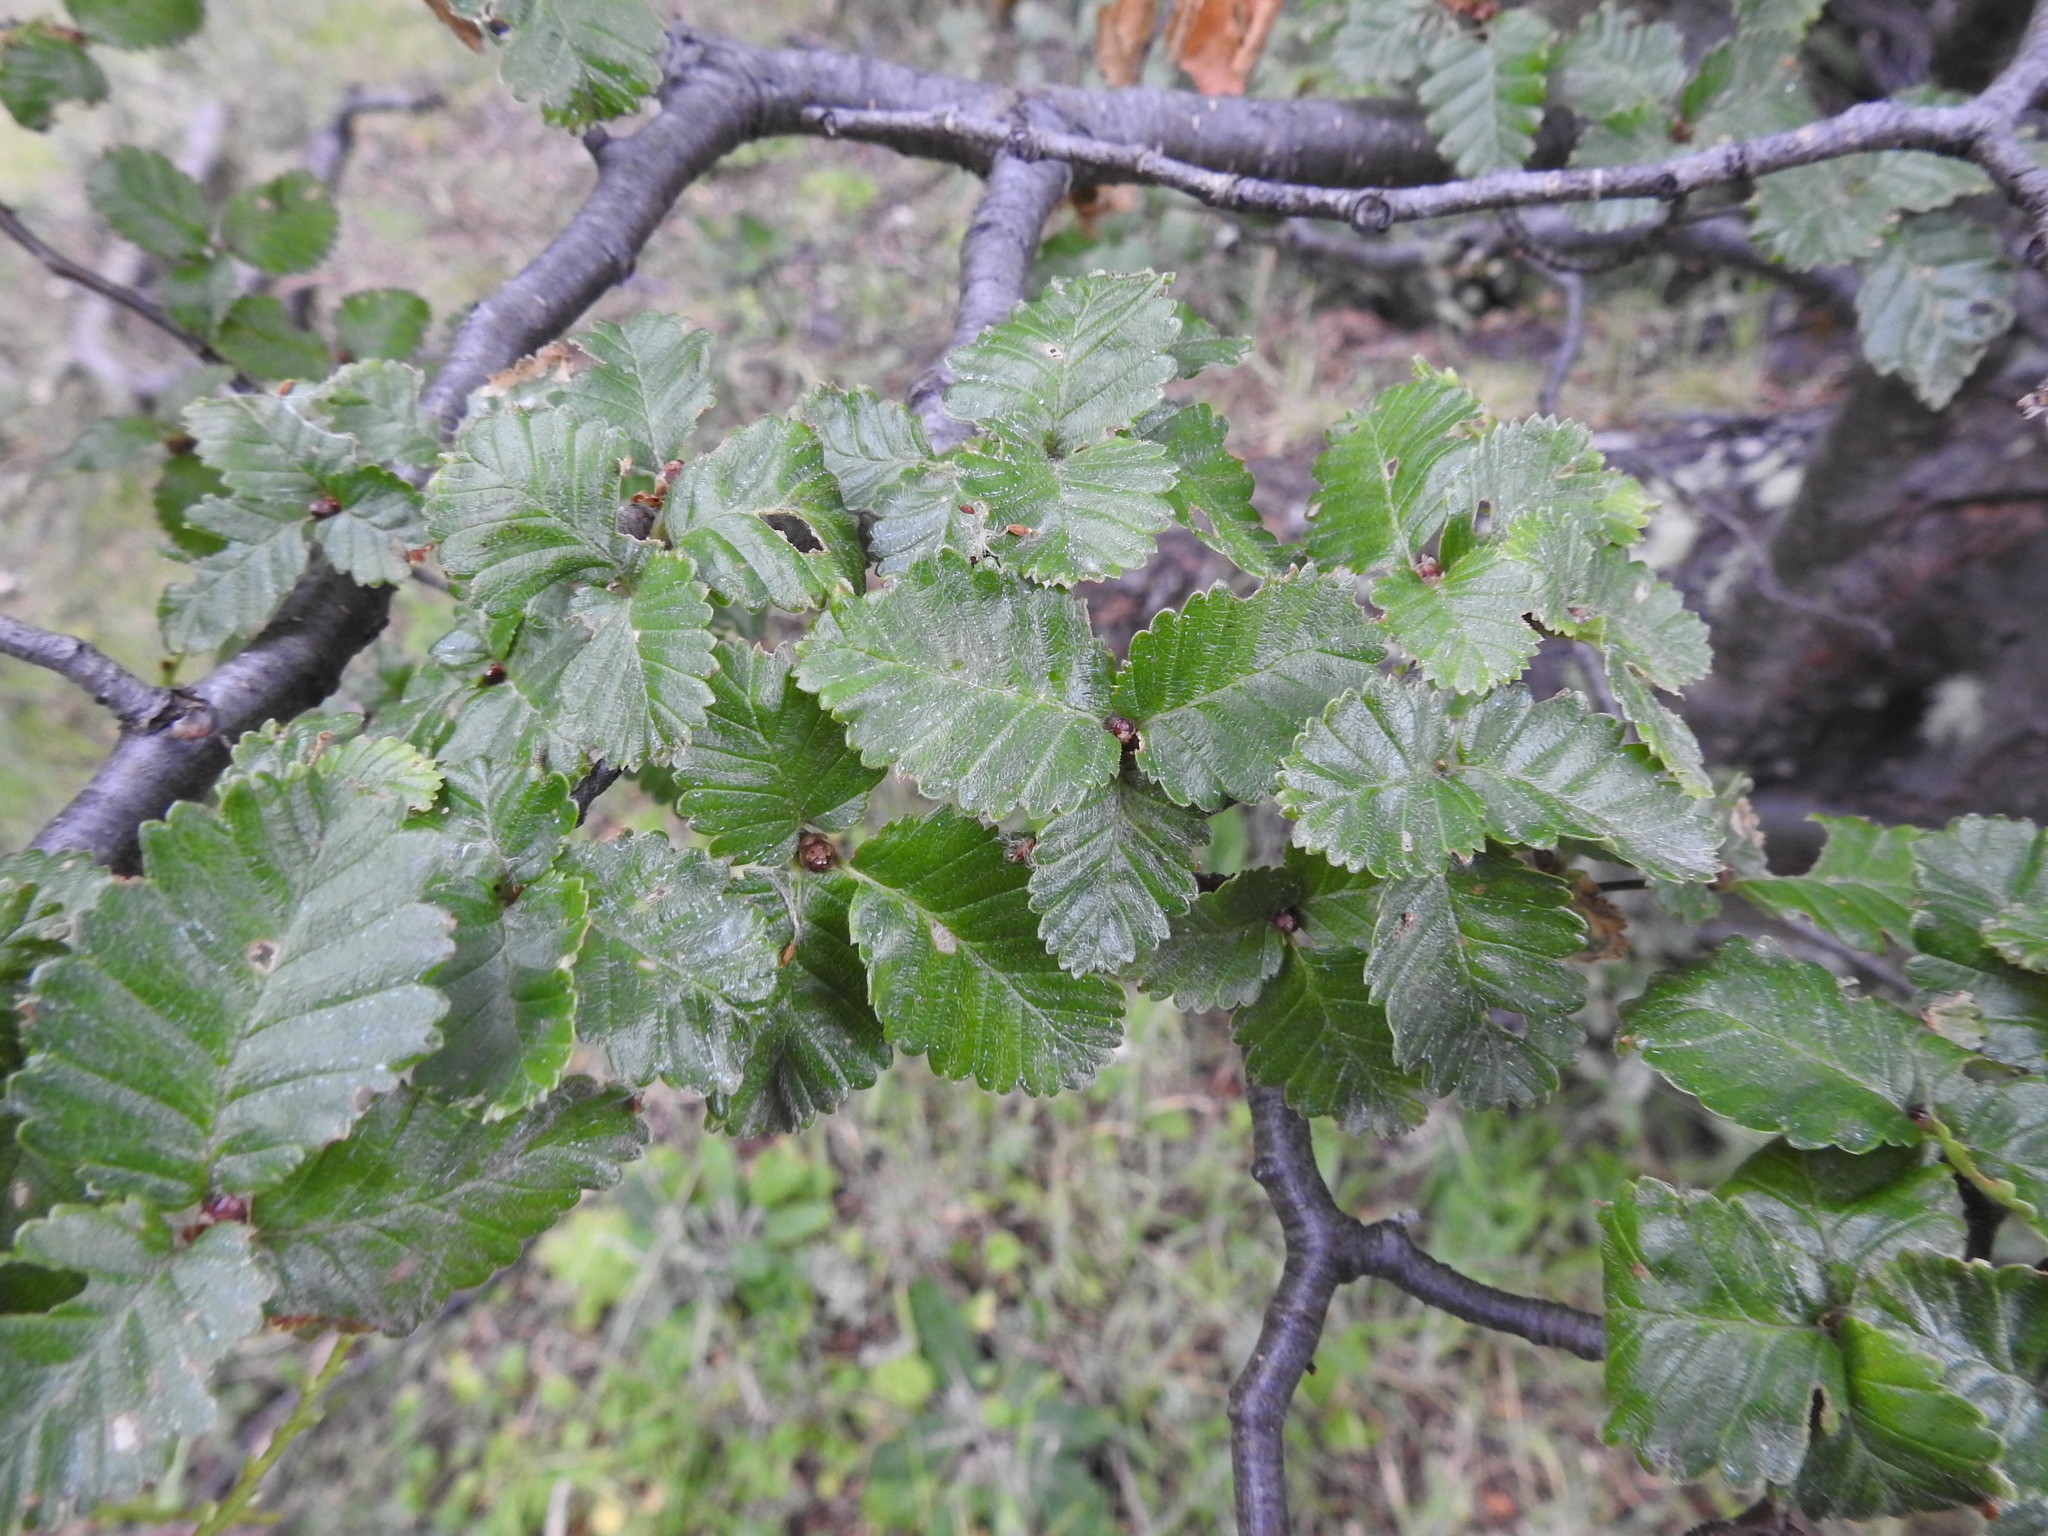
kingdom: Plantae
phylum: Tracheophyta
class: Magnoliopsida
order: Fagales
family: Nothofagaceae
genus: Nothofagus
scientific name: Nothofagus pumilio
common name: Lenga beech
